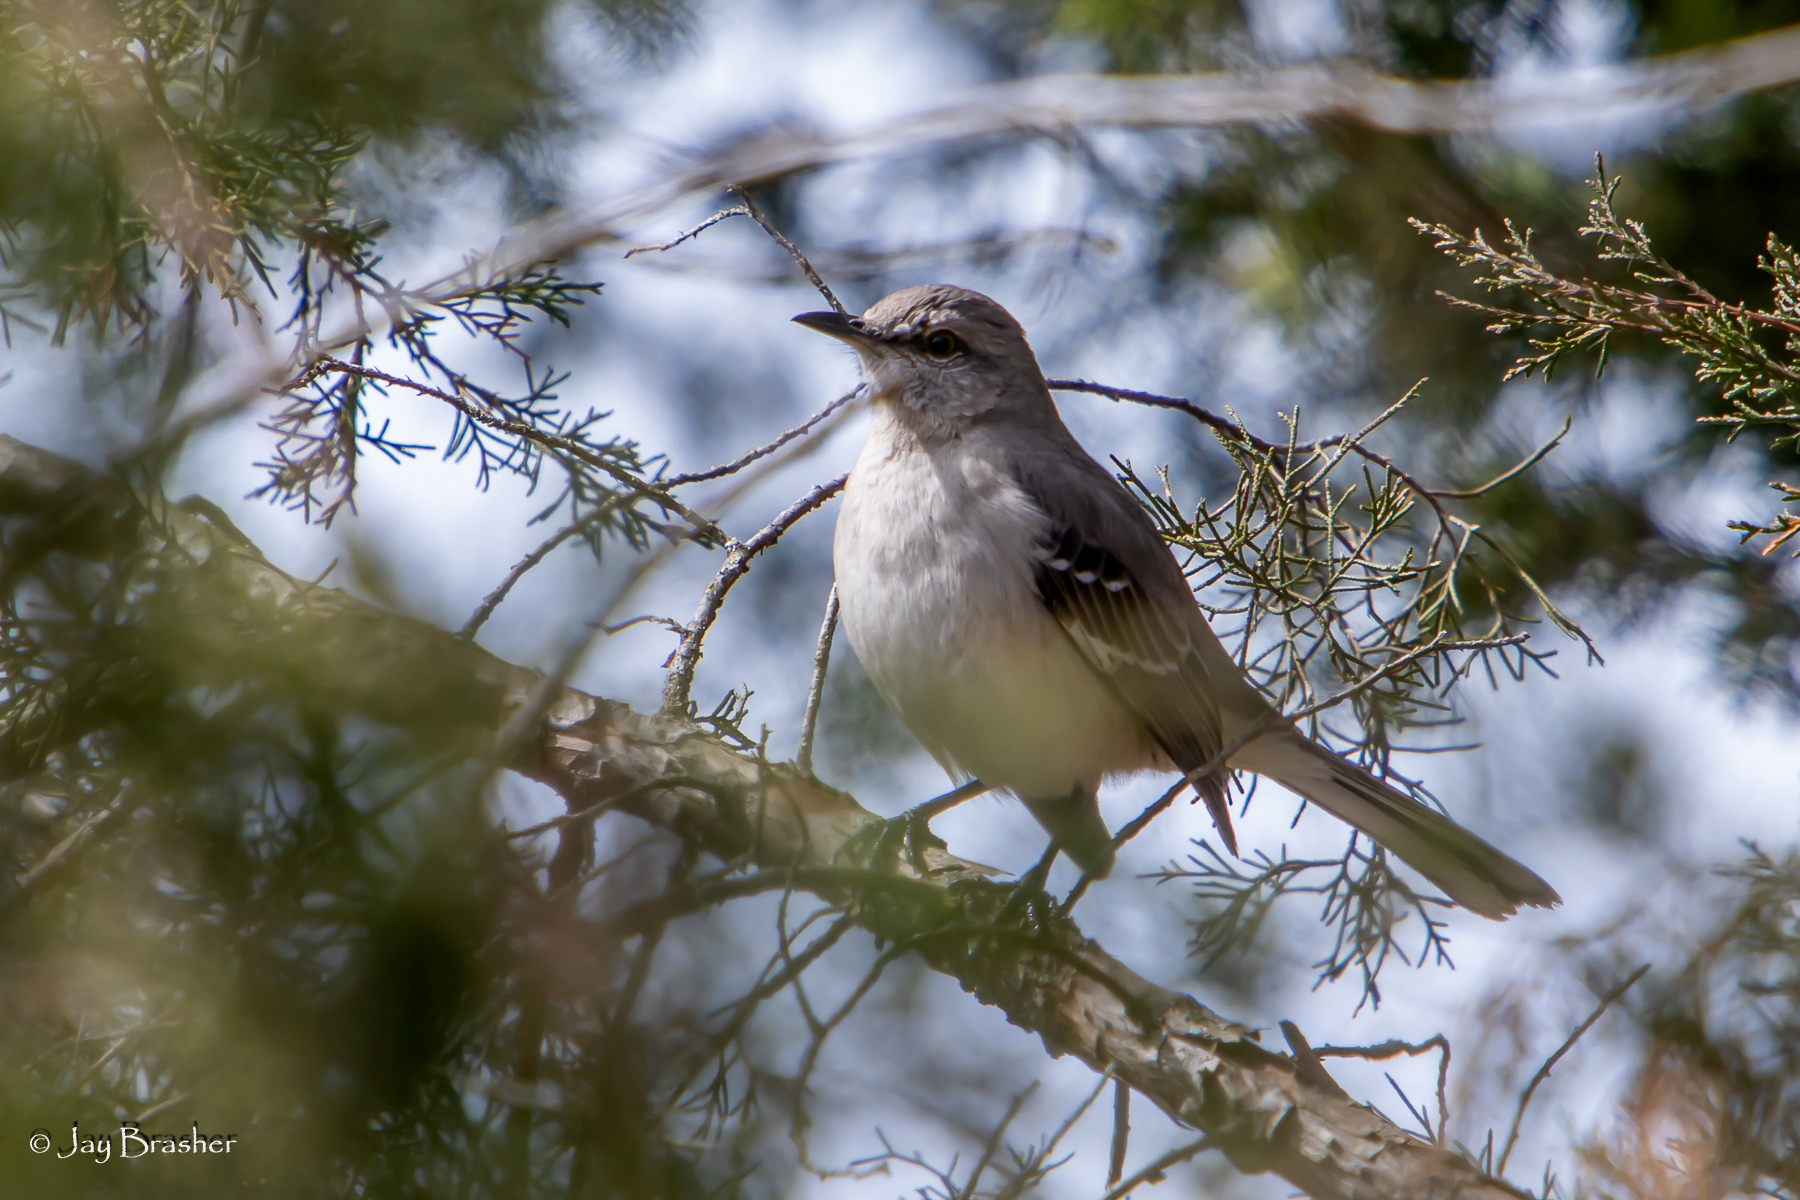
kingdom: Animalia
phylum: Chordata
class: Aves
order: Passeriformes
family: Mimidae
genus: Mimus
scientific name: Mimus polyglottos
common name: Northern mockingbird
